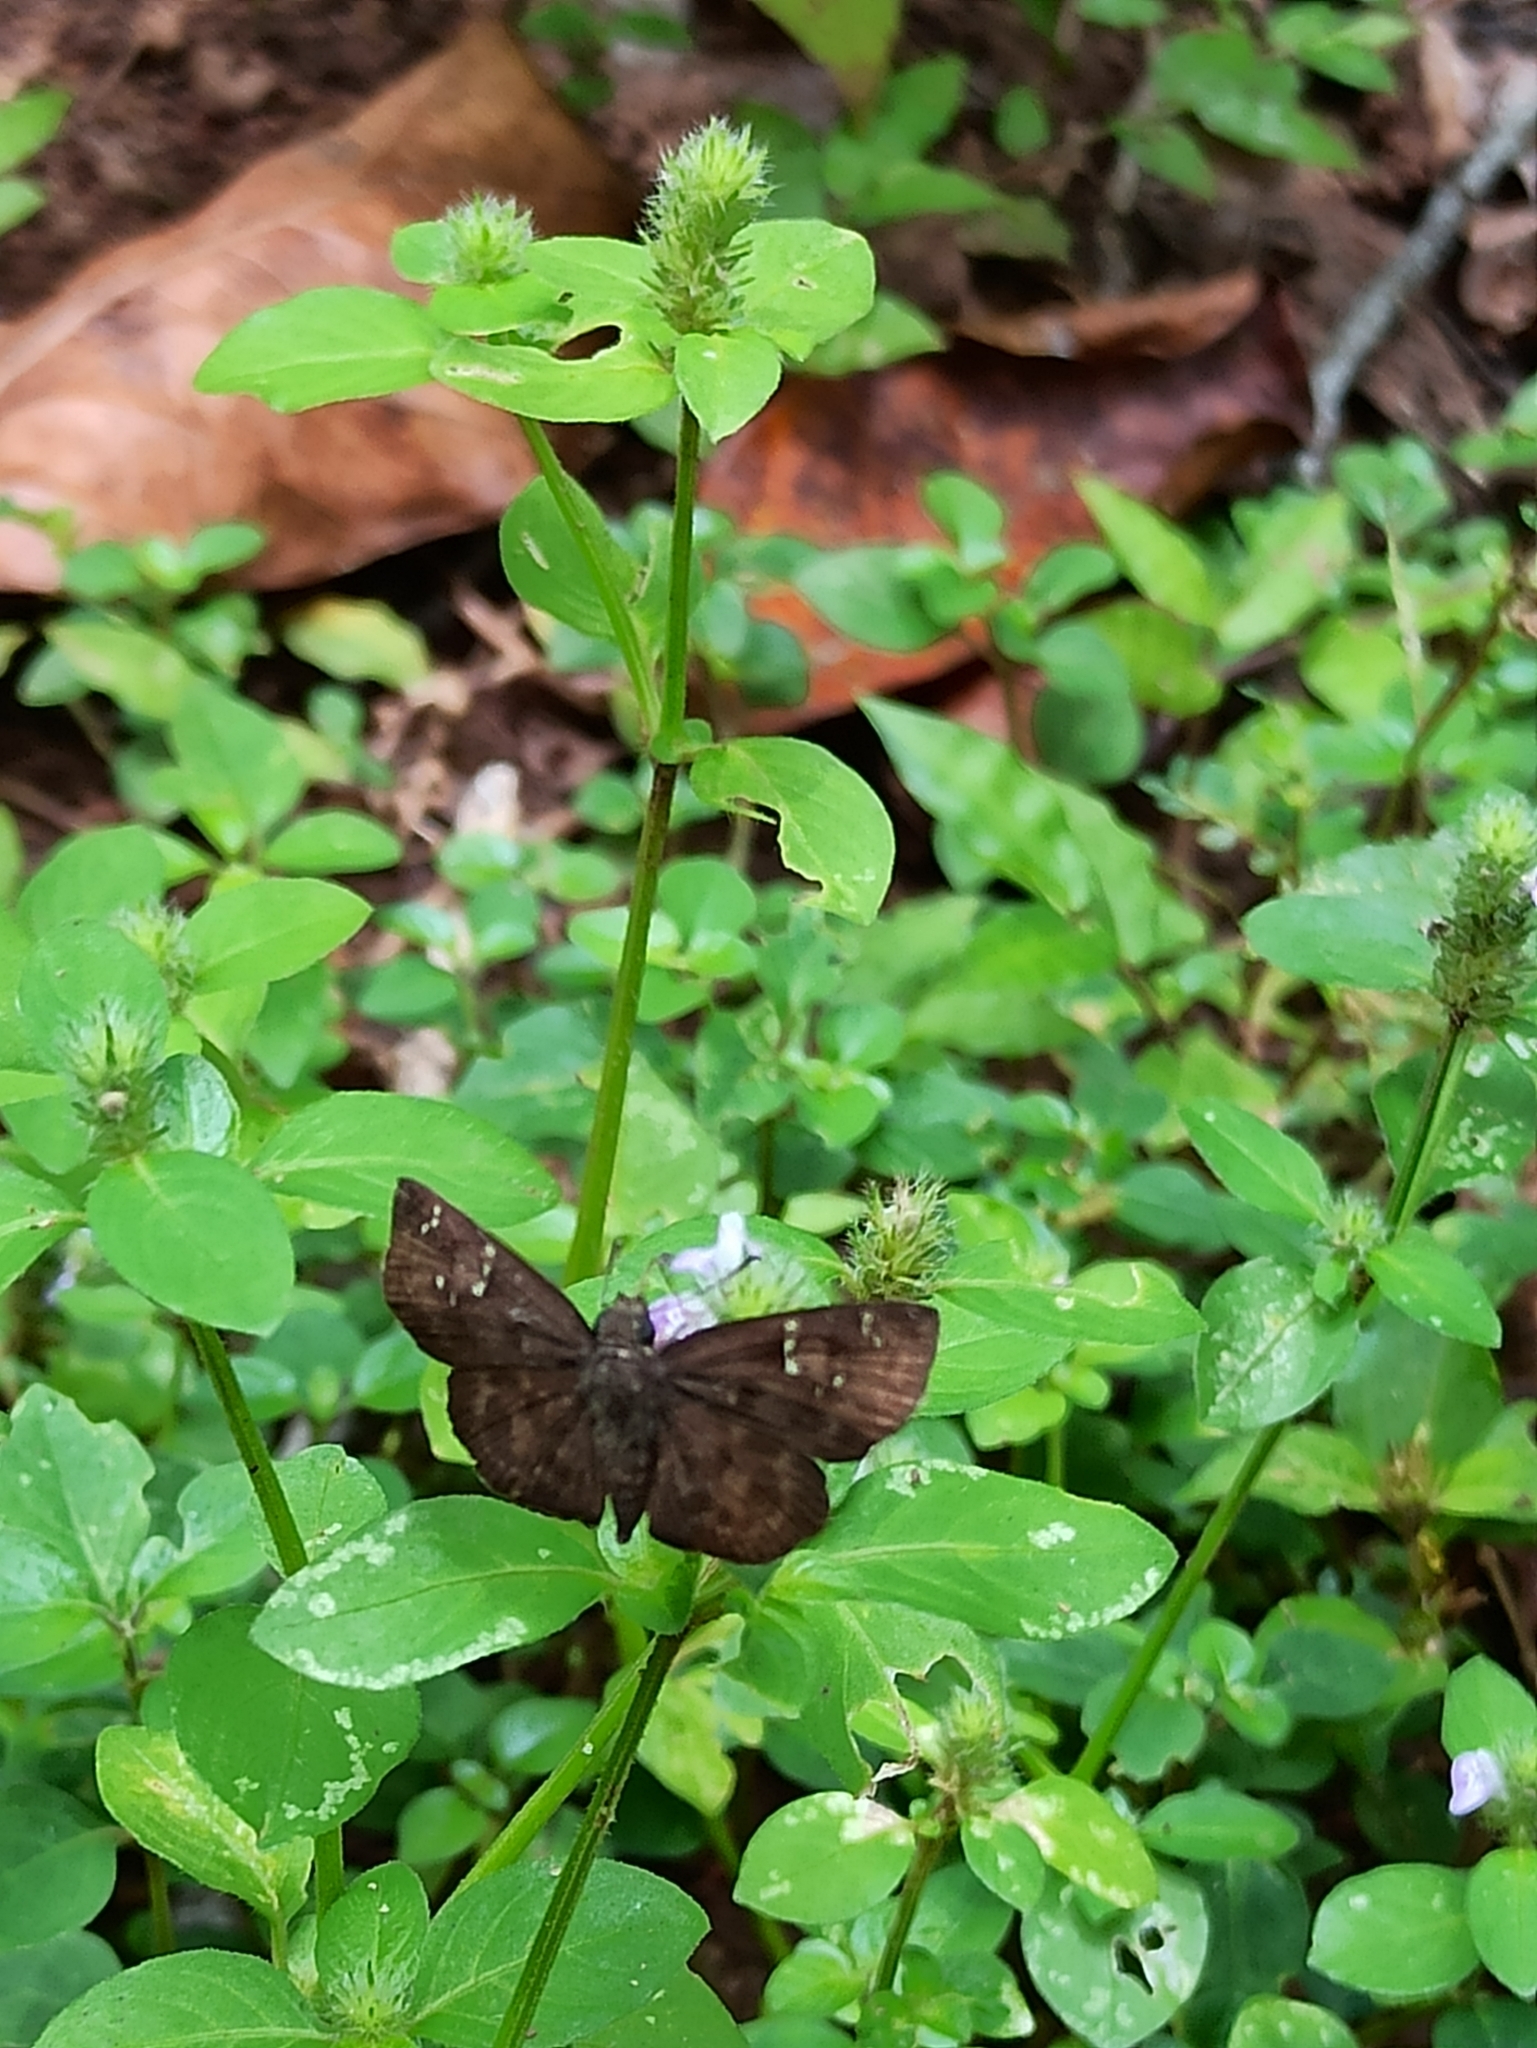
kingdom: Animalia
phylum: Arthropoda
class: Insecta
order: Lepidoptera
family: Hesperiidae
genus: Sarangesa
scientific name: Sarangesa dasahara
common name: Common small flat
